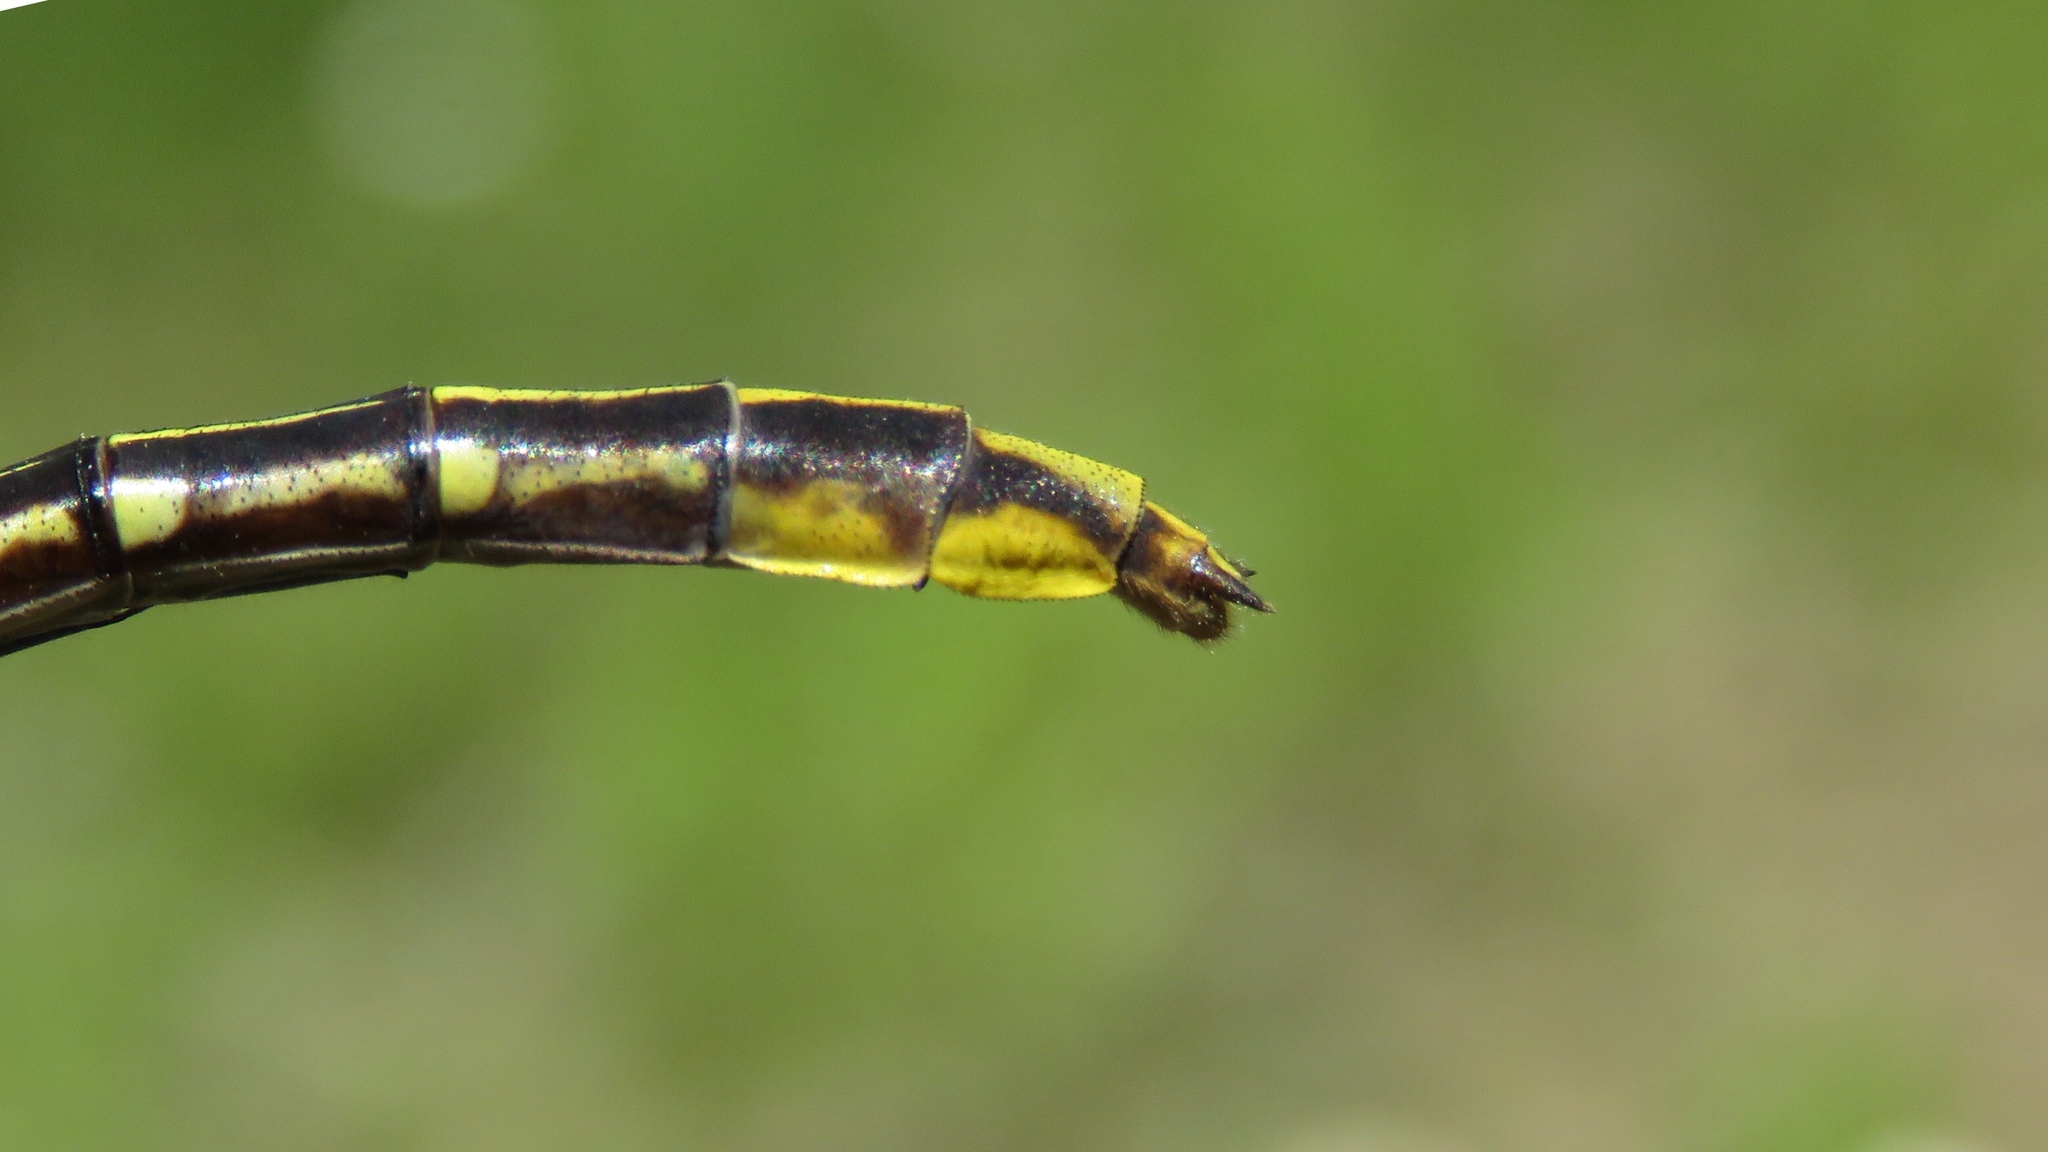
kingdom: Animalia
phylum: Arthropoda
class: Insecta
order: Odonata
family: Gomphidae
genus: Phanogomphus
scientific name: Phanogomphus exilis
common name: Lancet clubtail
